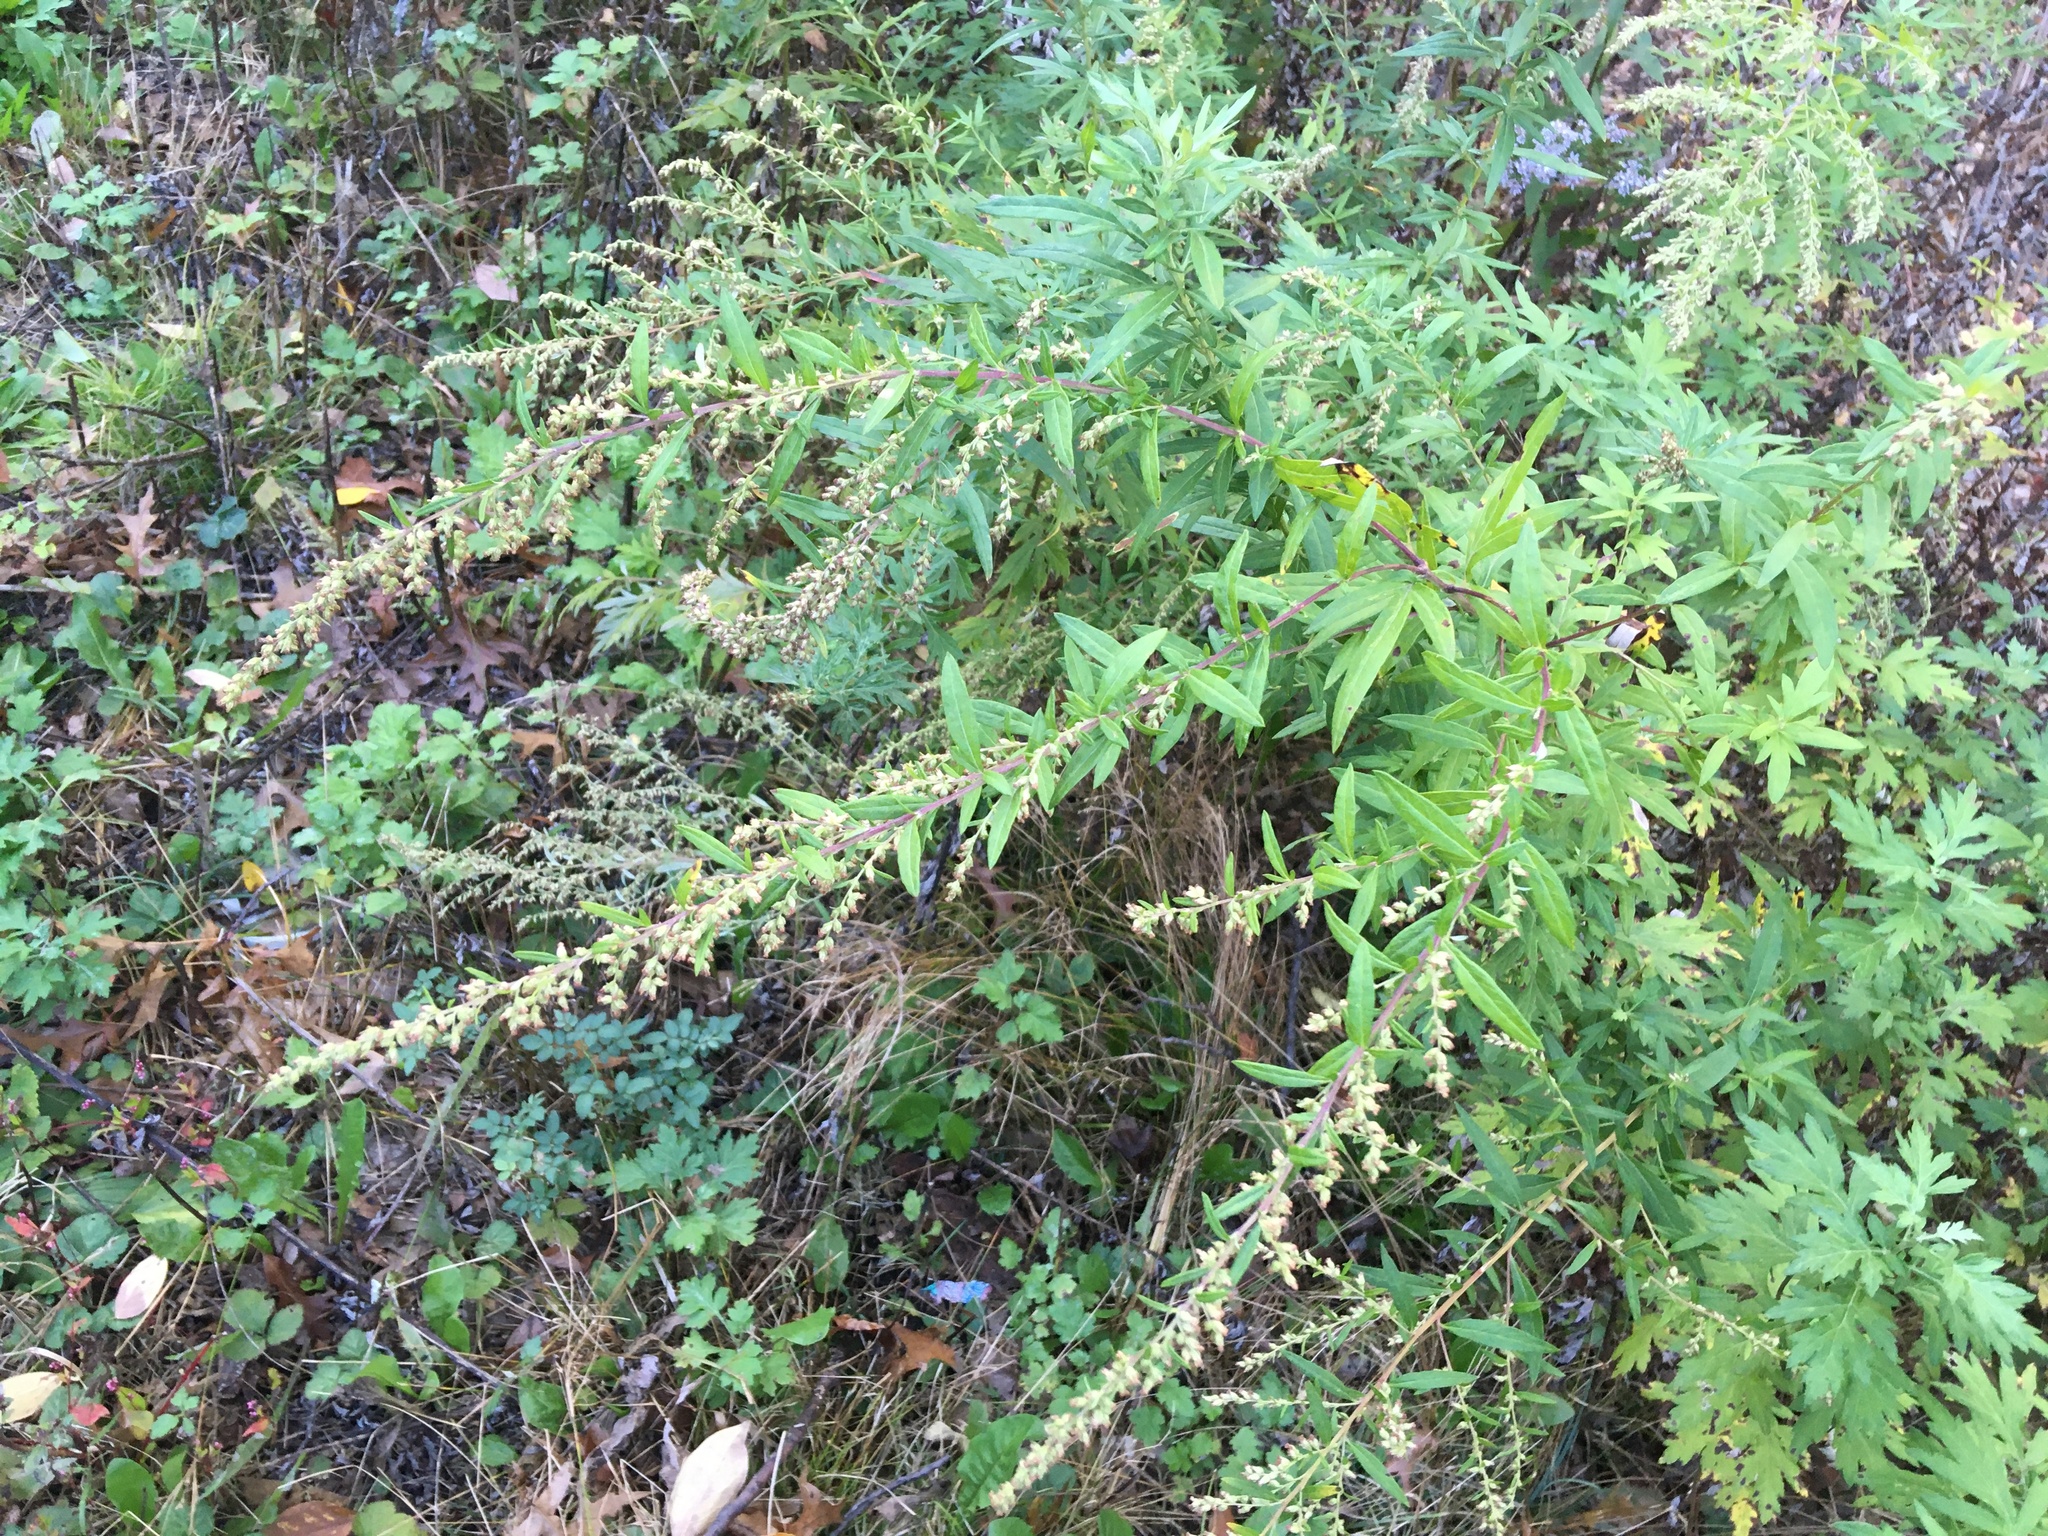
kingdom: Plantae
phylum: Tracheophyta
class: Magnoliopsida
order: Asterales
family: Asteraceae
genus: Artemisia
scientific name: Artemisia vulgaris
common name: Mugwort
